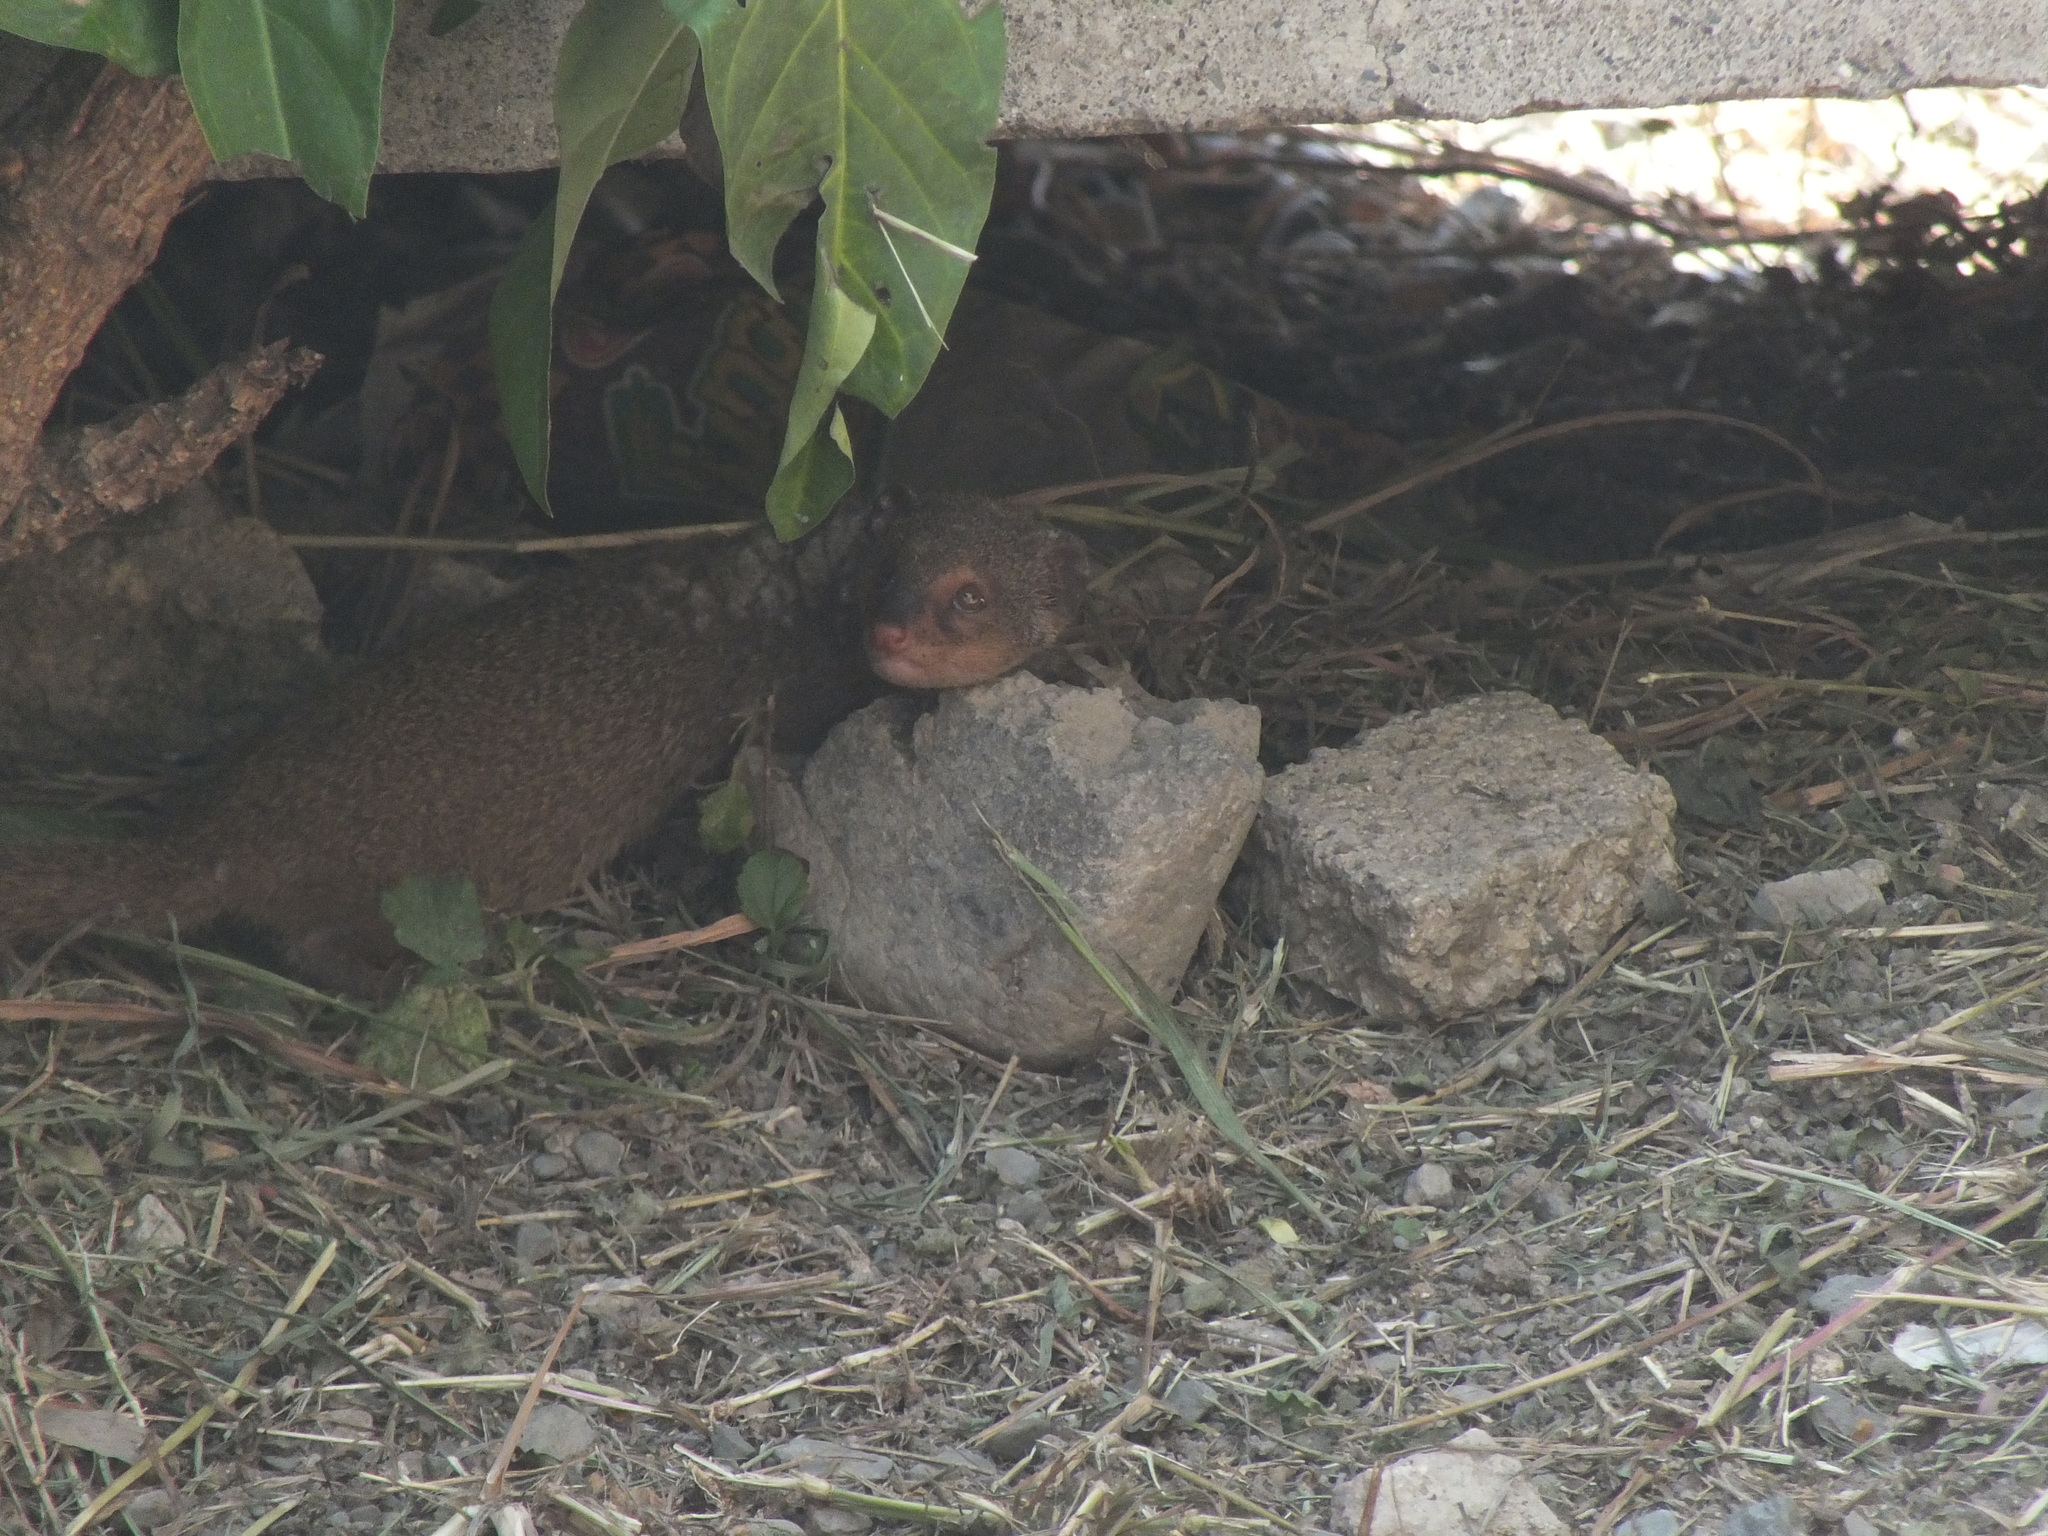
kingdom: Animalia
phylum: Chordata
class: Mammalia
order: Carnivora
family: Herpestidae
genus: Herpestes
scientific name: Herpestes javanicus
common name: Small asian mongoose
